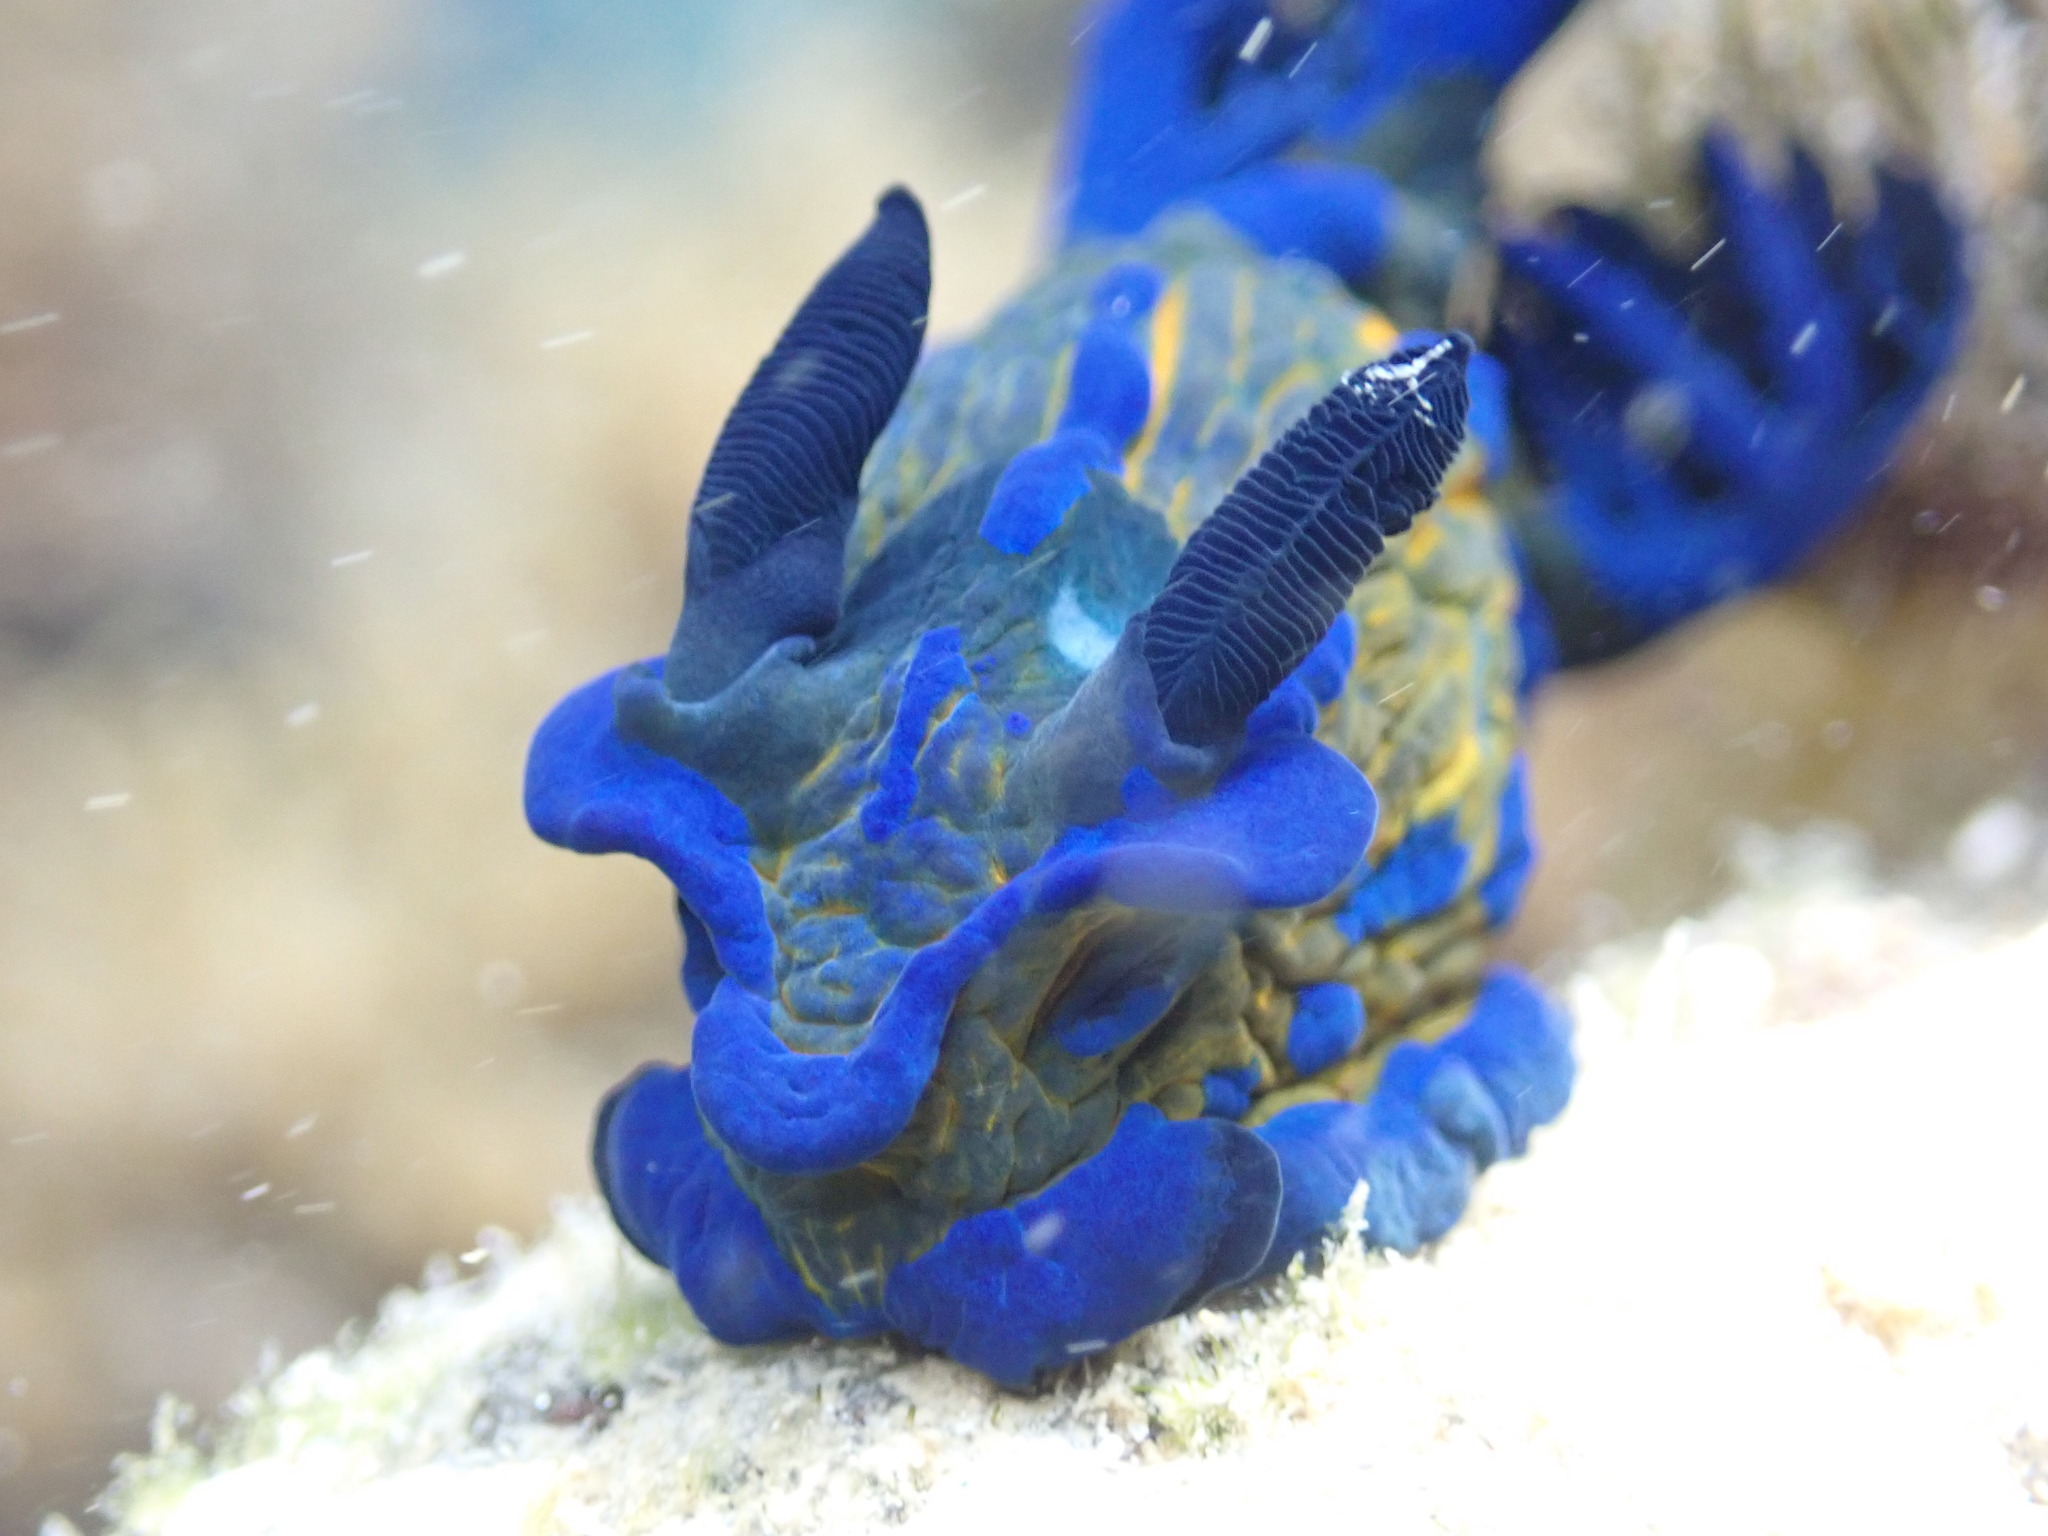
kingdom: Animalia
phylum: Mollusca
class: Gastropoda
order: Nudibranchia
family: Polyceridae
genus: Tambja
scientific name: Tambja verconis
